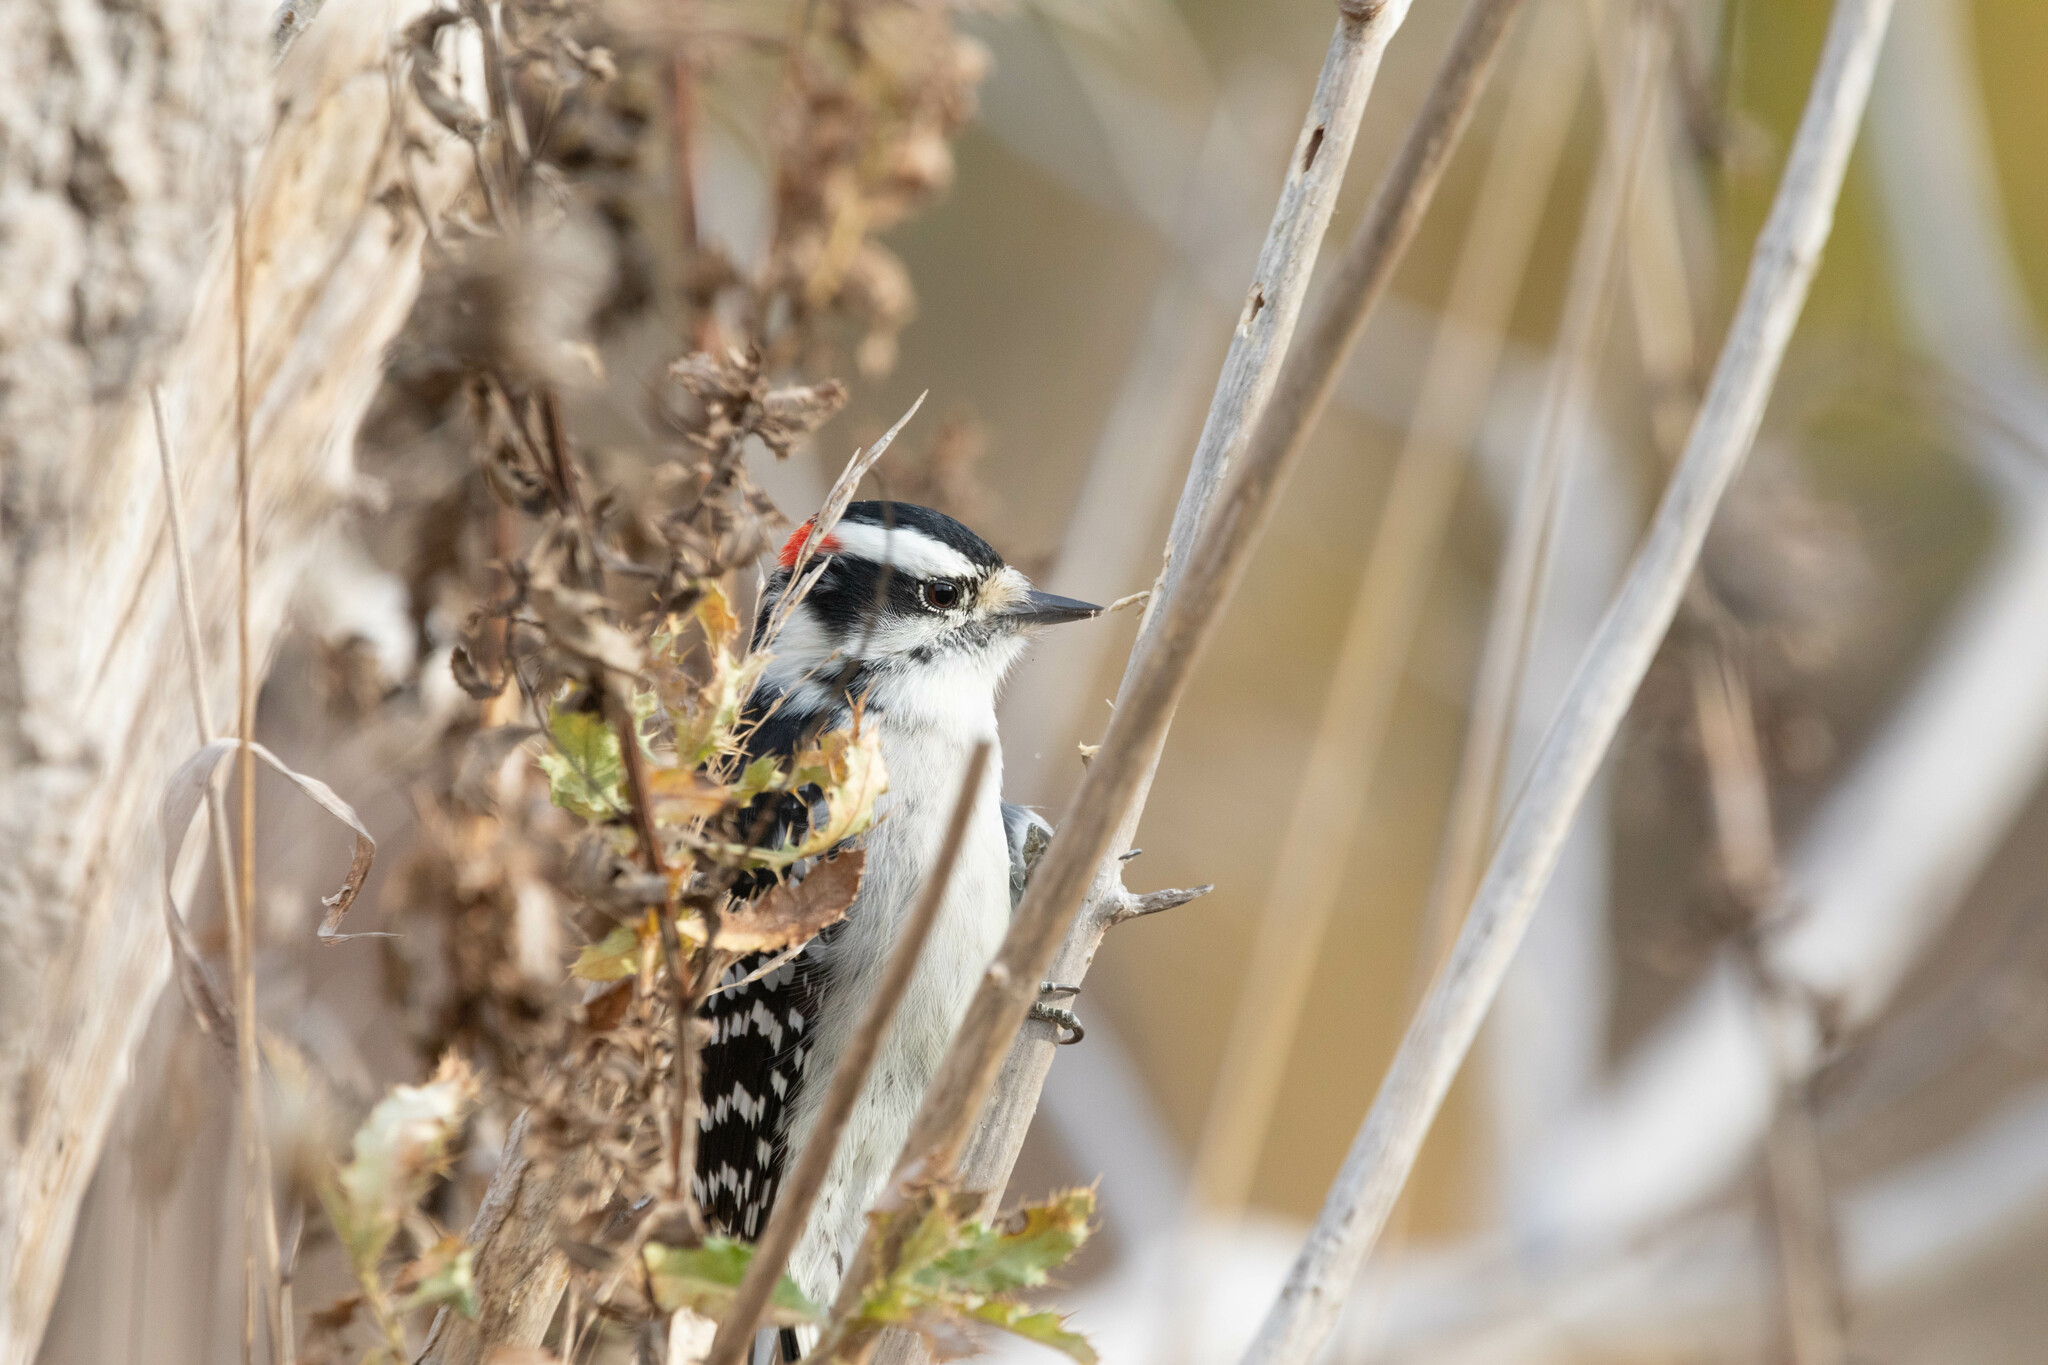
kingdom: Animalia
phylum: Chordata
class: Aves
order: Piciformes
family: Picidae
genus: Dryobates
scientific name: Dryobates pubescens
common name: Downy woodpecker
